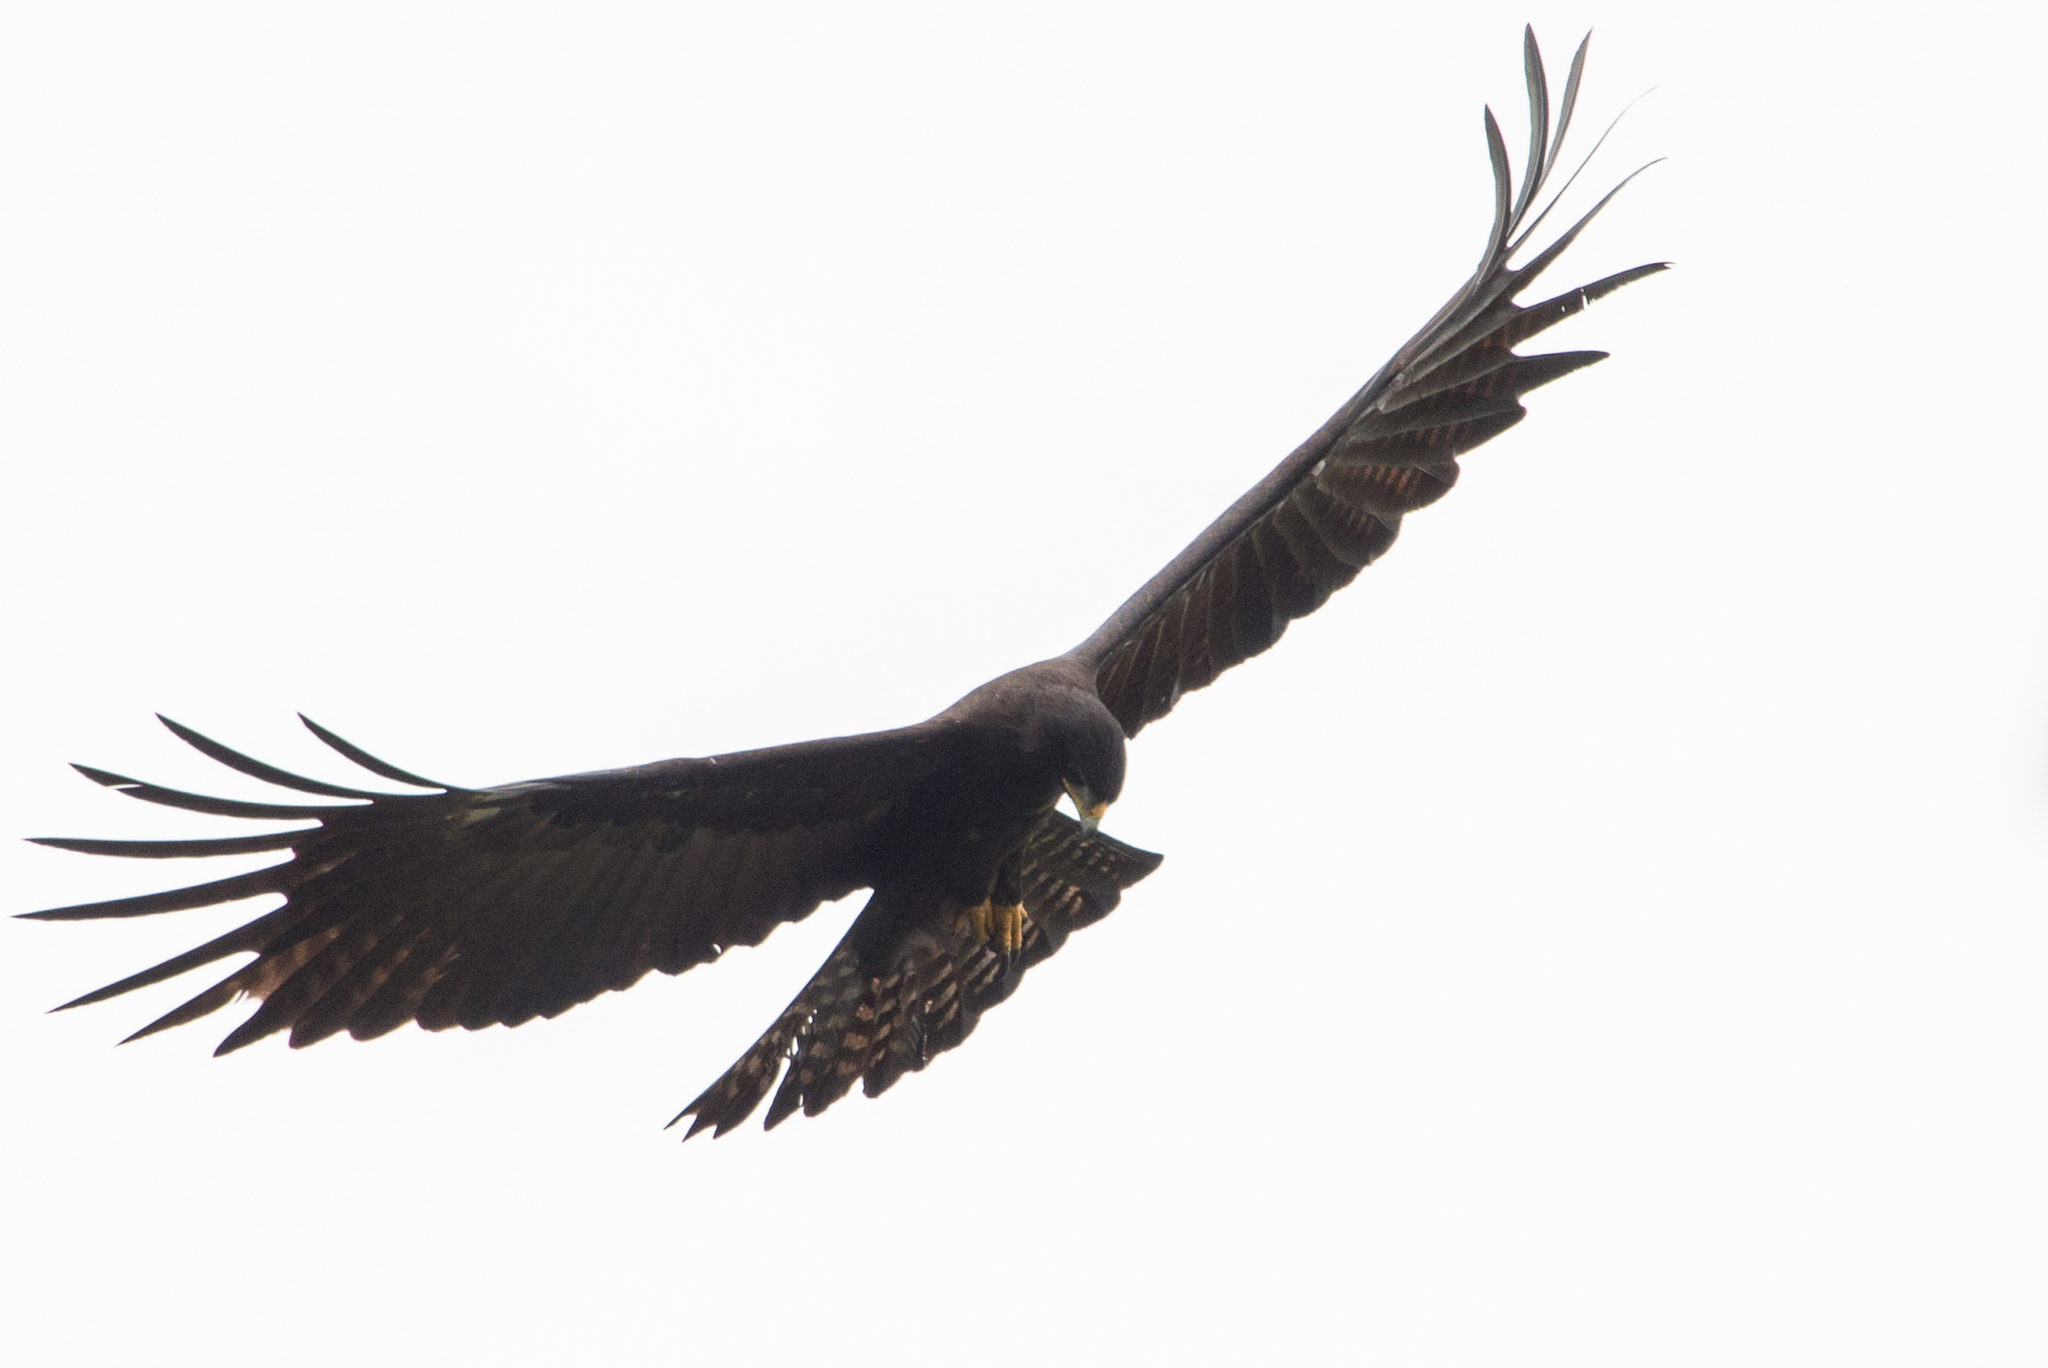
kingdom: Animalia
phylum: Chordata
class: Aves
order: Accipitriformes
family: Accipitridae
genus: Ictinaetus
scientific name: Ictinaetus malayensis
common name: Black eagle
